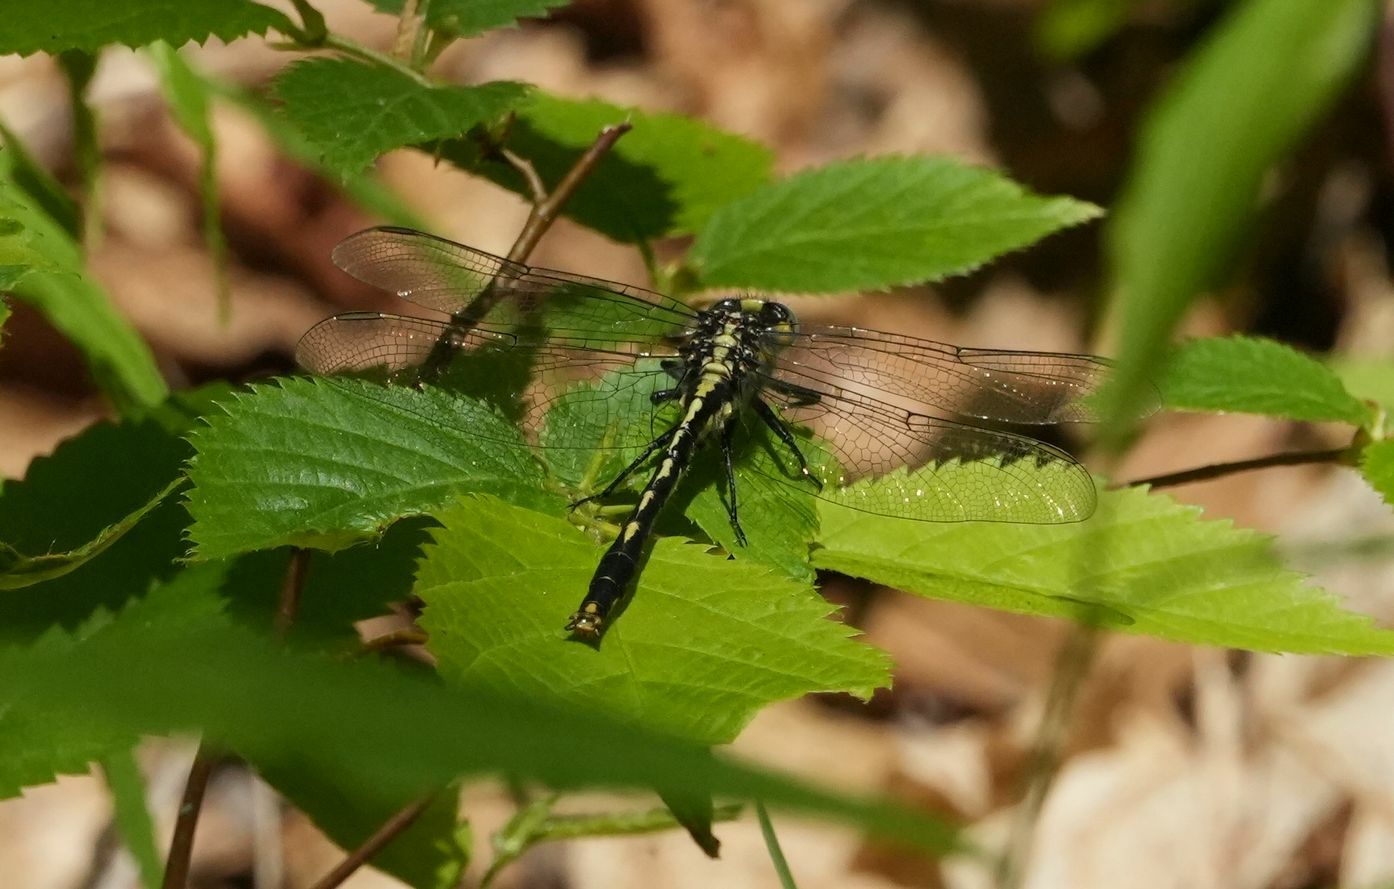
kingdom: Animalia
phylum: Arthropoda
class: Insecta
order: Odonata
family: Gomphidae
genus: Arigomphus
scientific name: Arigomphus furcifer
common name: Lilypad clubtail
